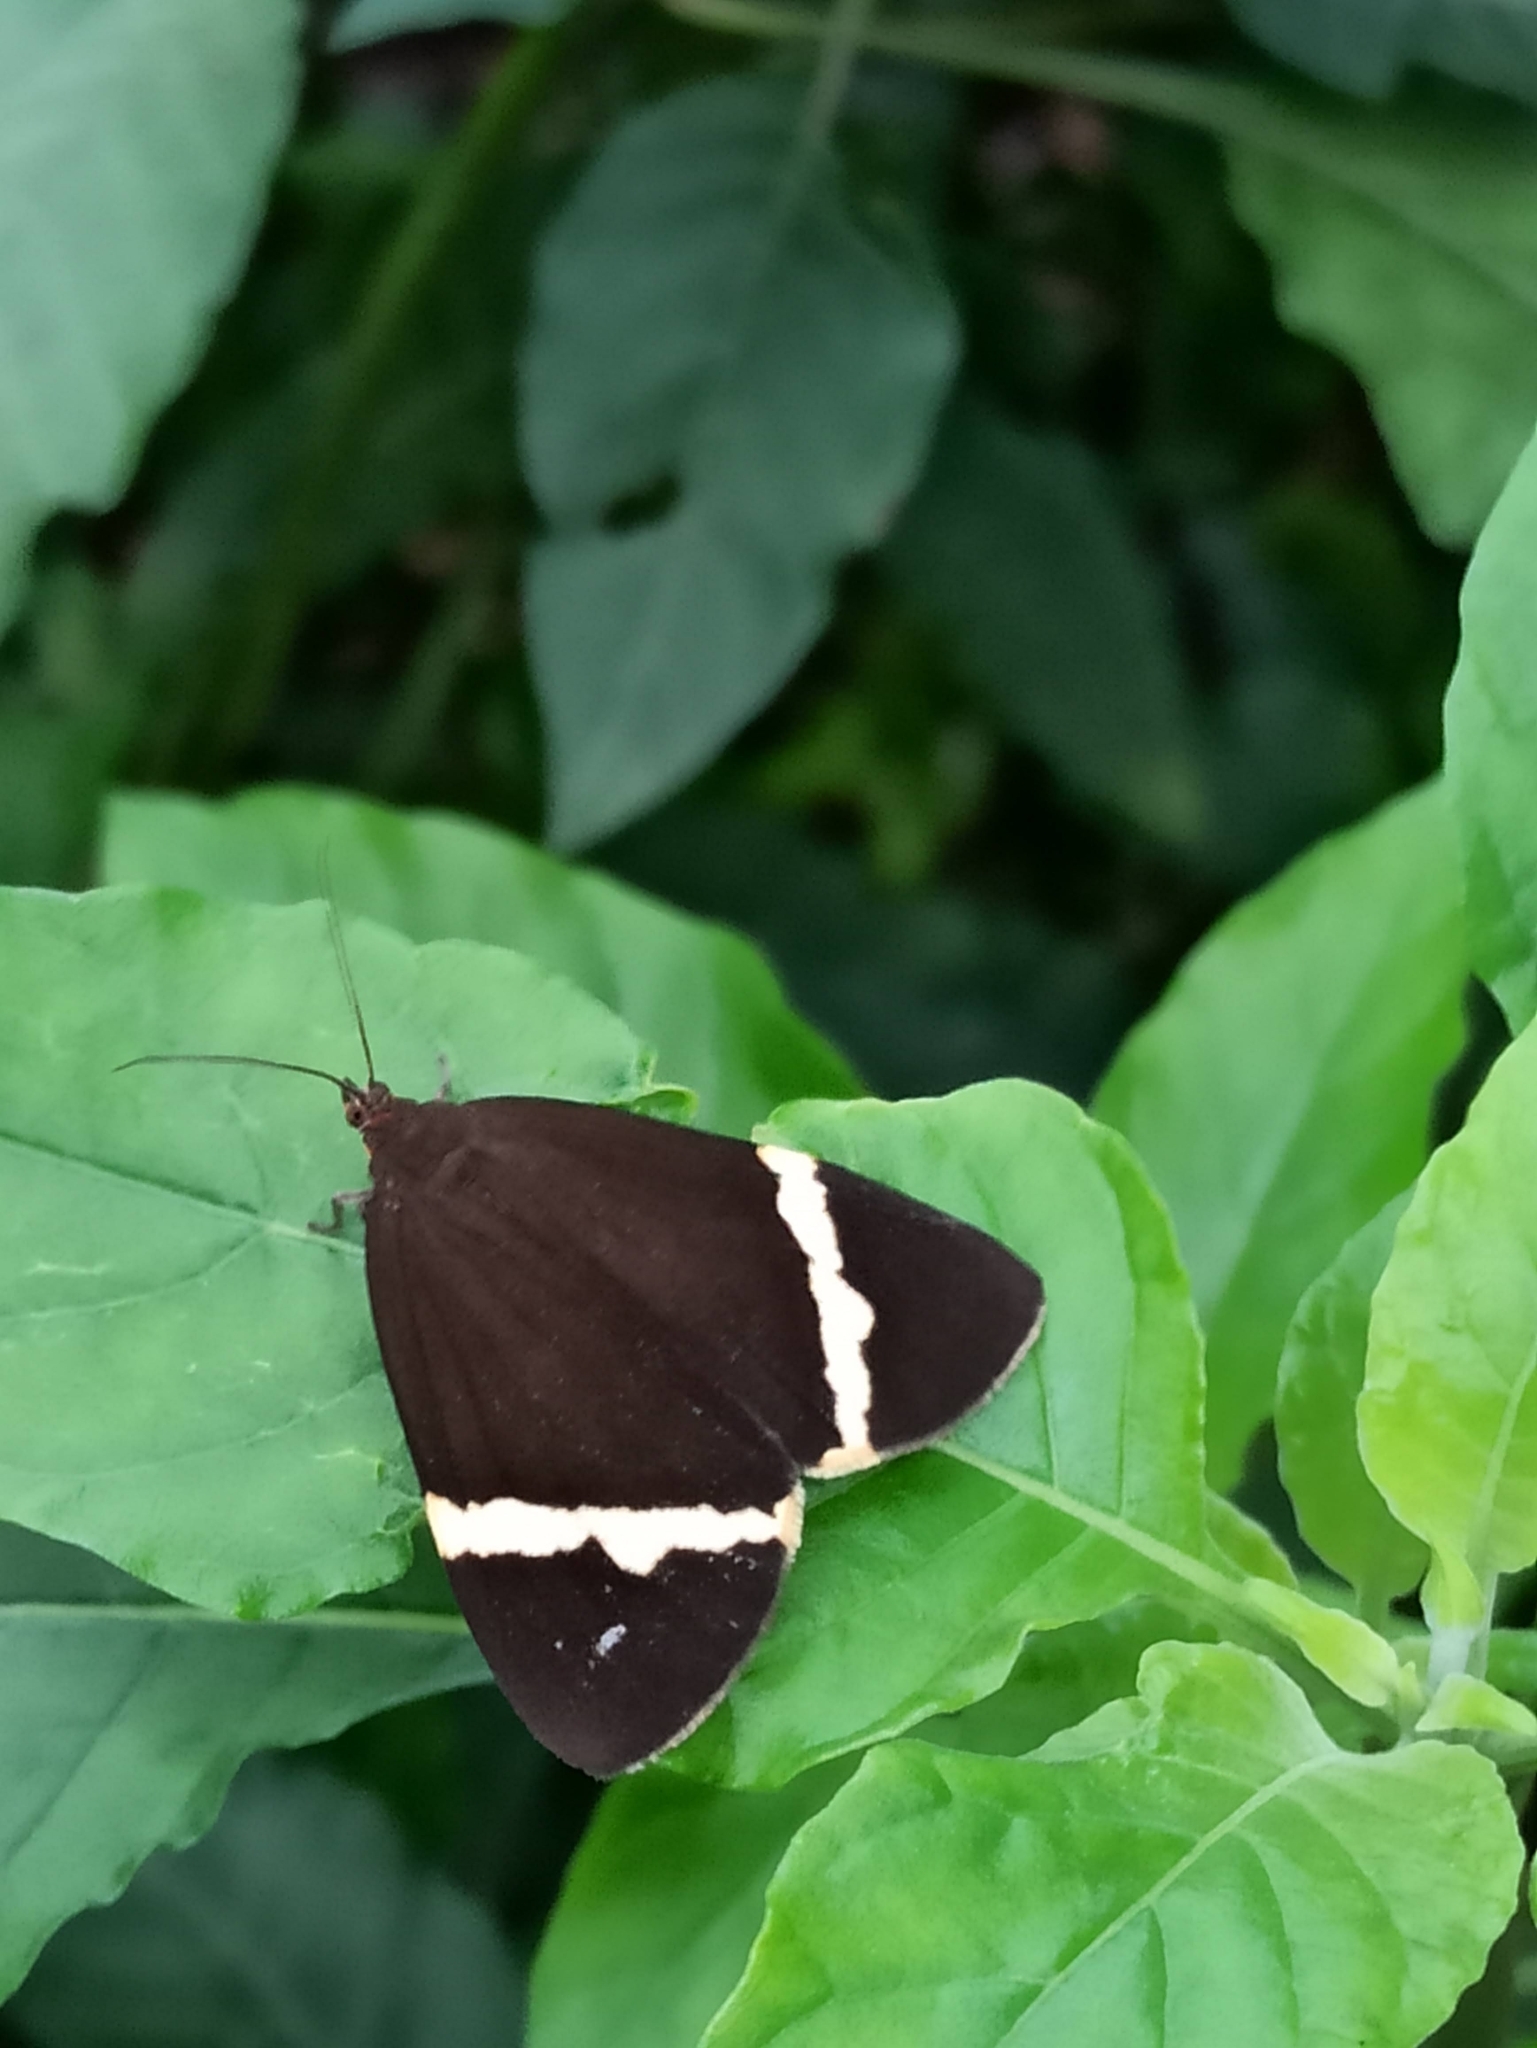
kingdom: Animalia
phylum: Arthropoda
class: Insecta
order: Lepidoptera
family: Erebidae
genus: Curoba
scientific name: Curoba sangarida
